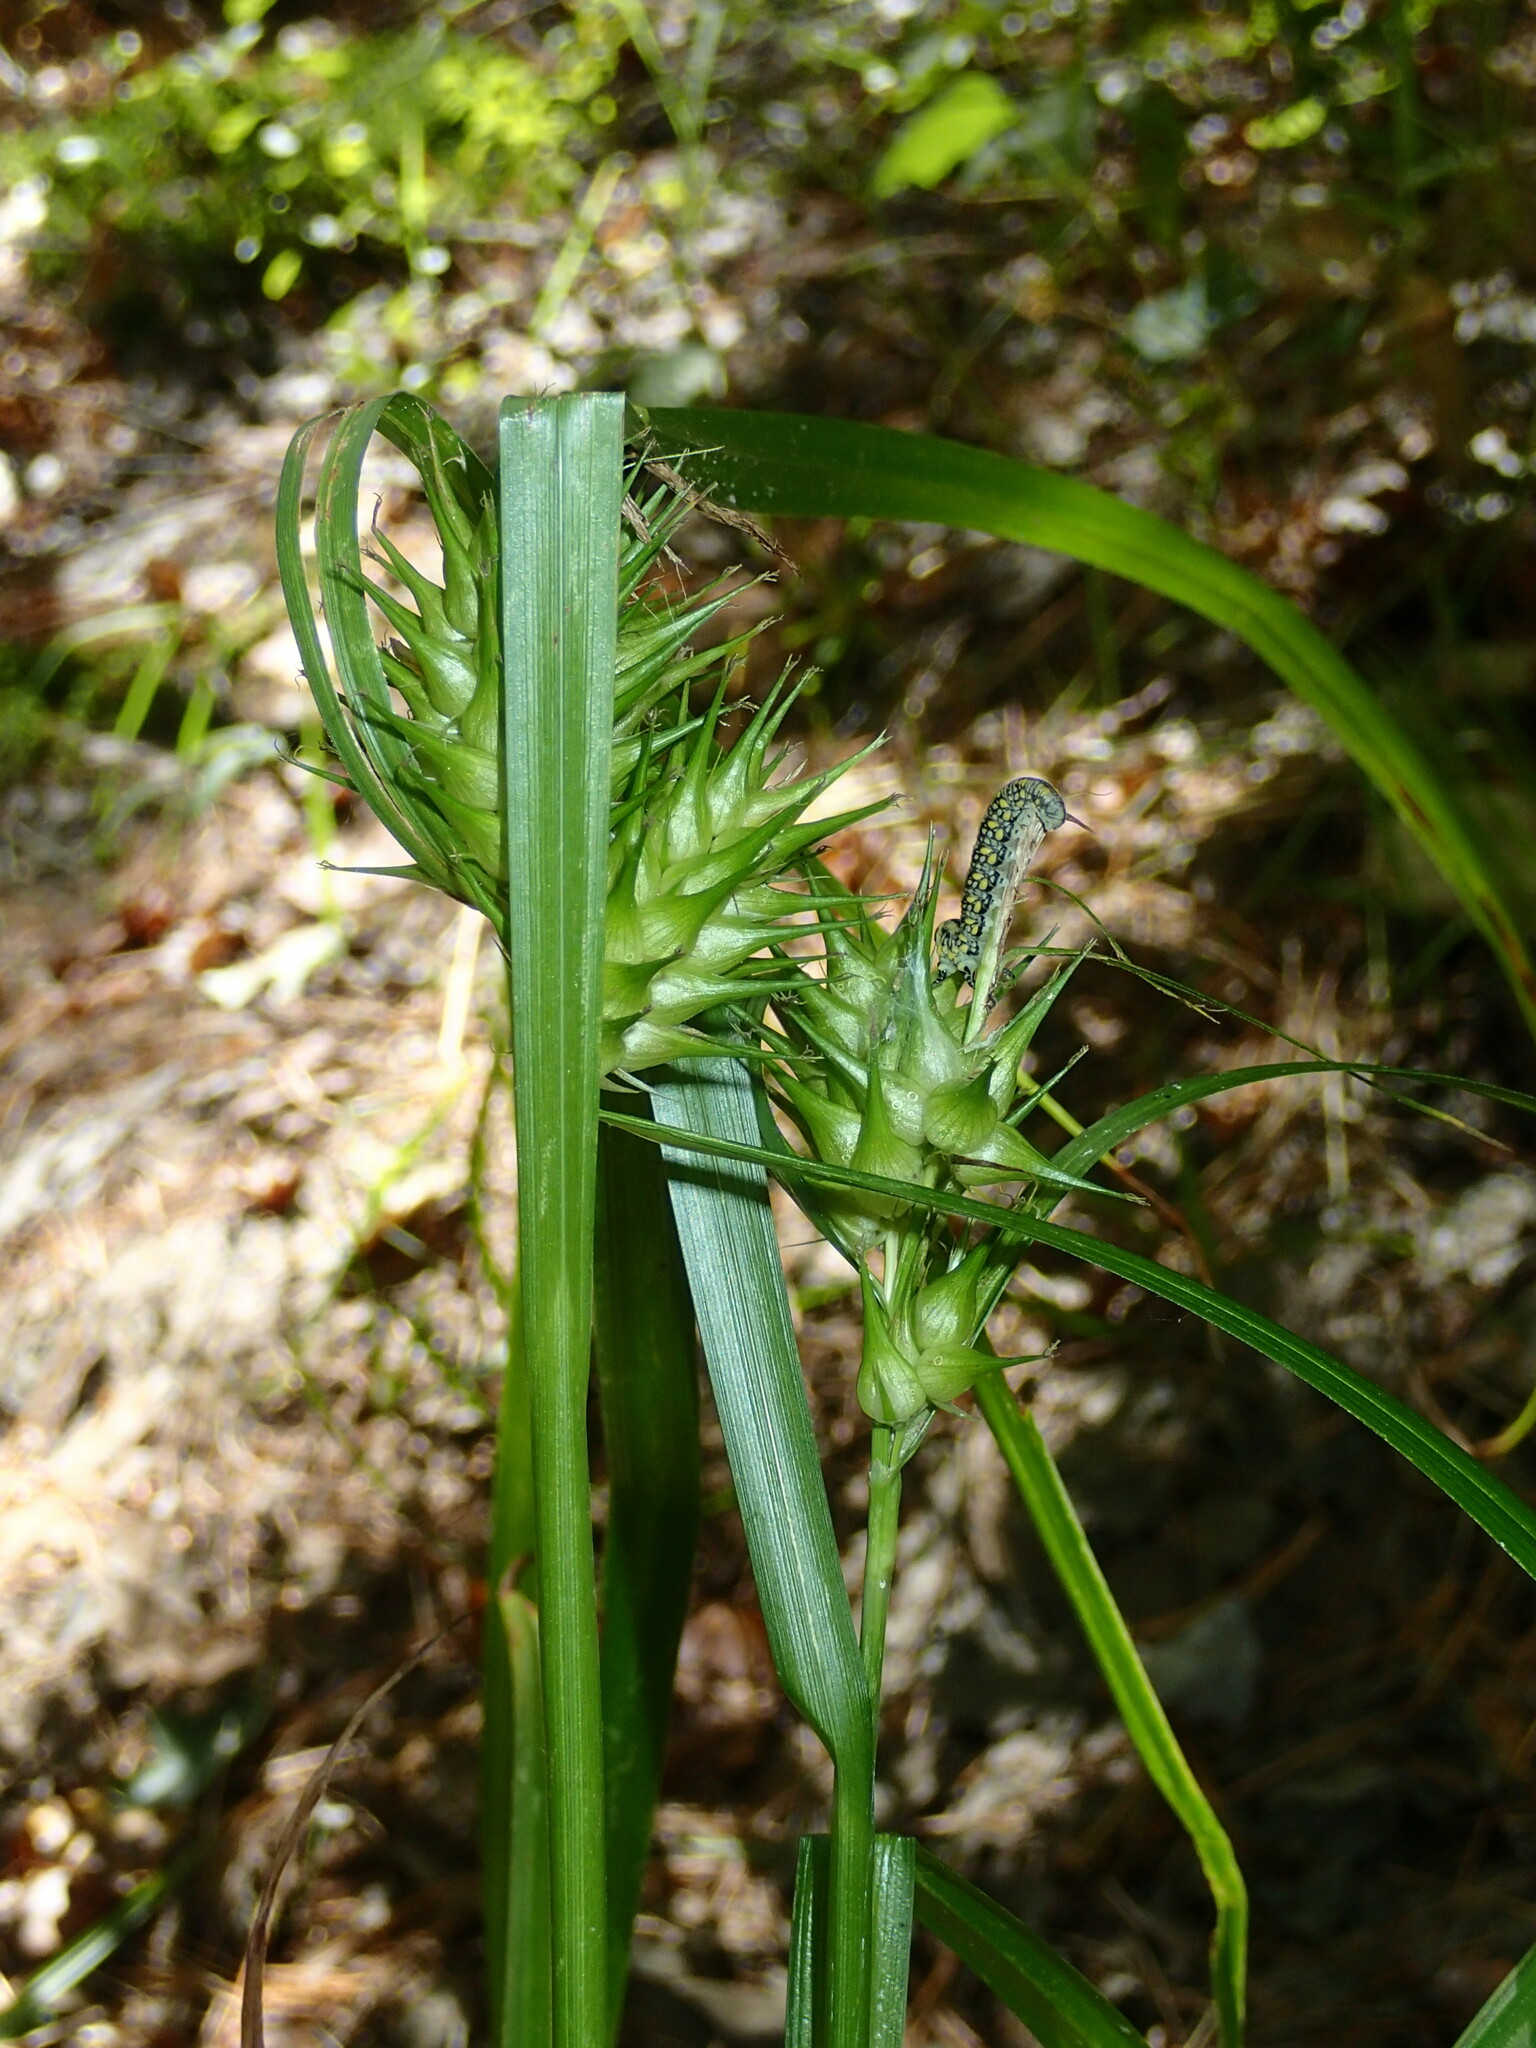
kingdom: Plantae
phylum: Tracheophyta
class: Liliopsida
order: Poales
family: Cyperaceae
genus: Carex
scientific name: Carex lupulina
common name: Hop sedge
